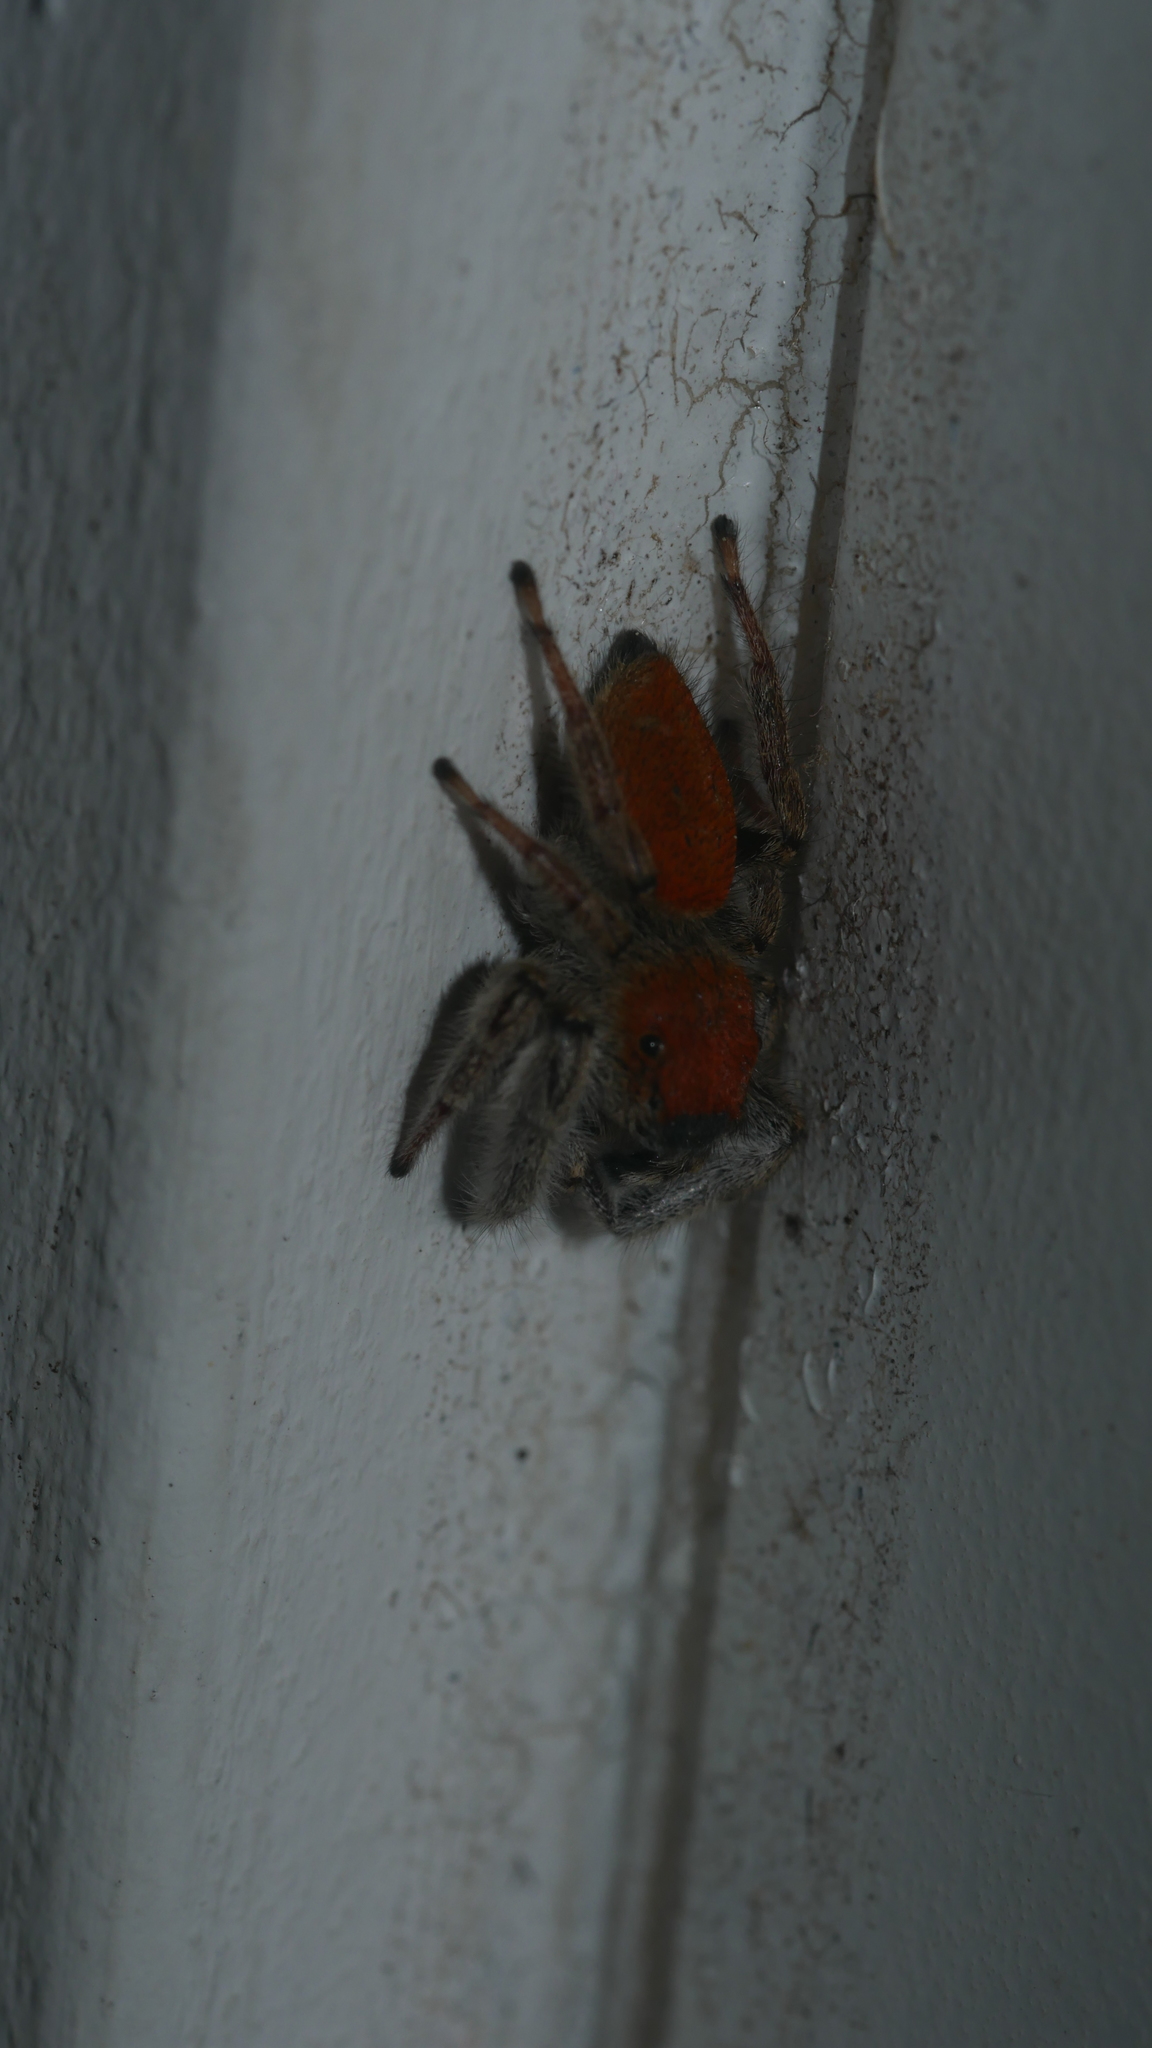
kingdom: Animalia
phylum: Arthropoda
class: Arachnida
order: Araneae
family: Salticidae
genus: Phidippus
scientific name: Phidippus whitmani
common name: Whitman's jumping spider
